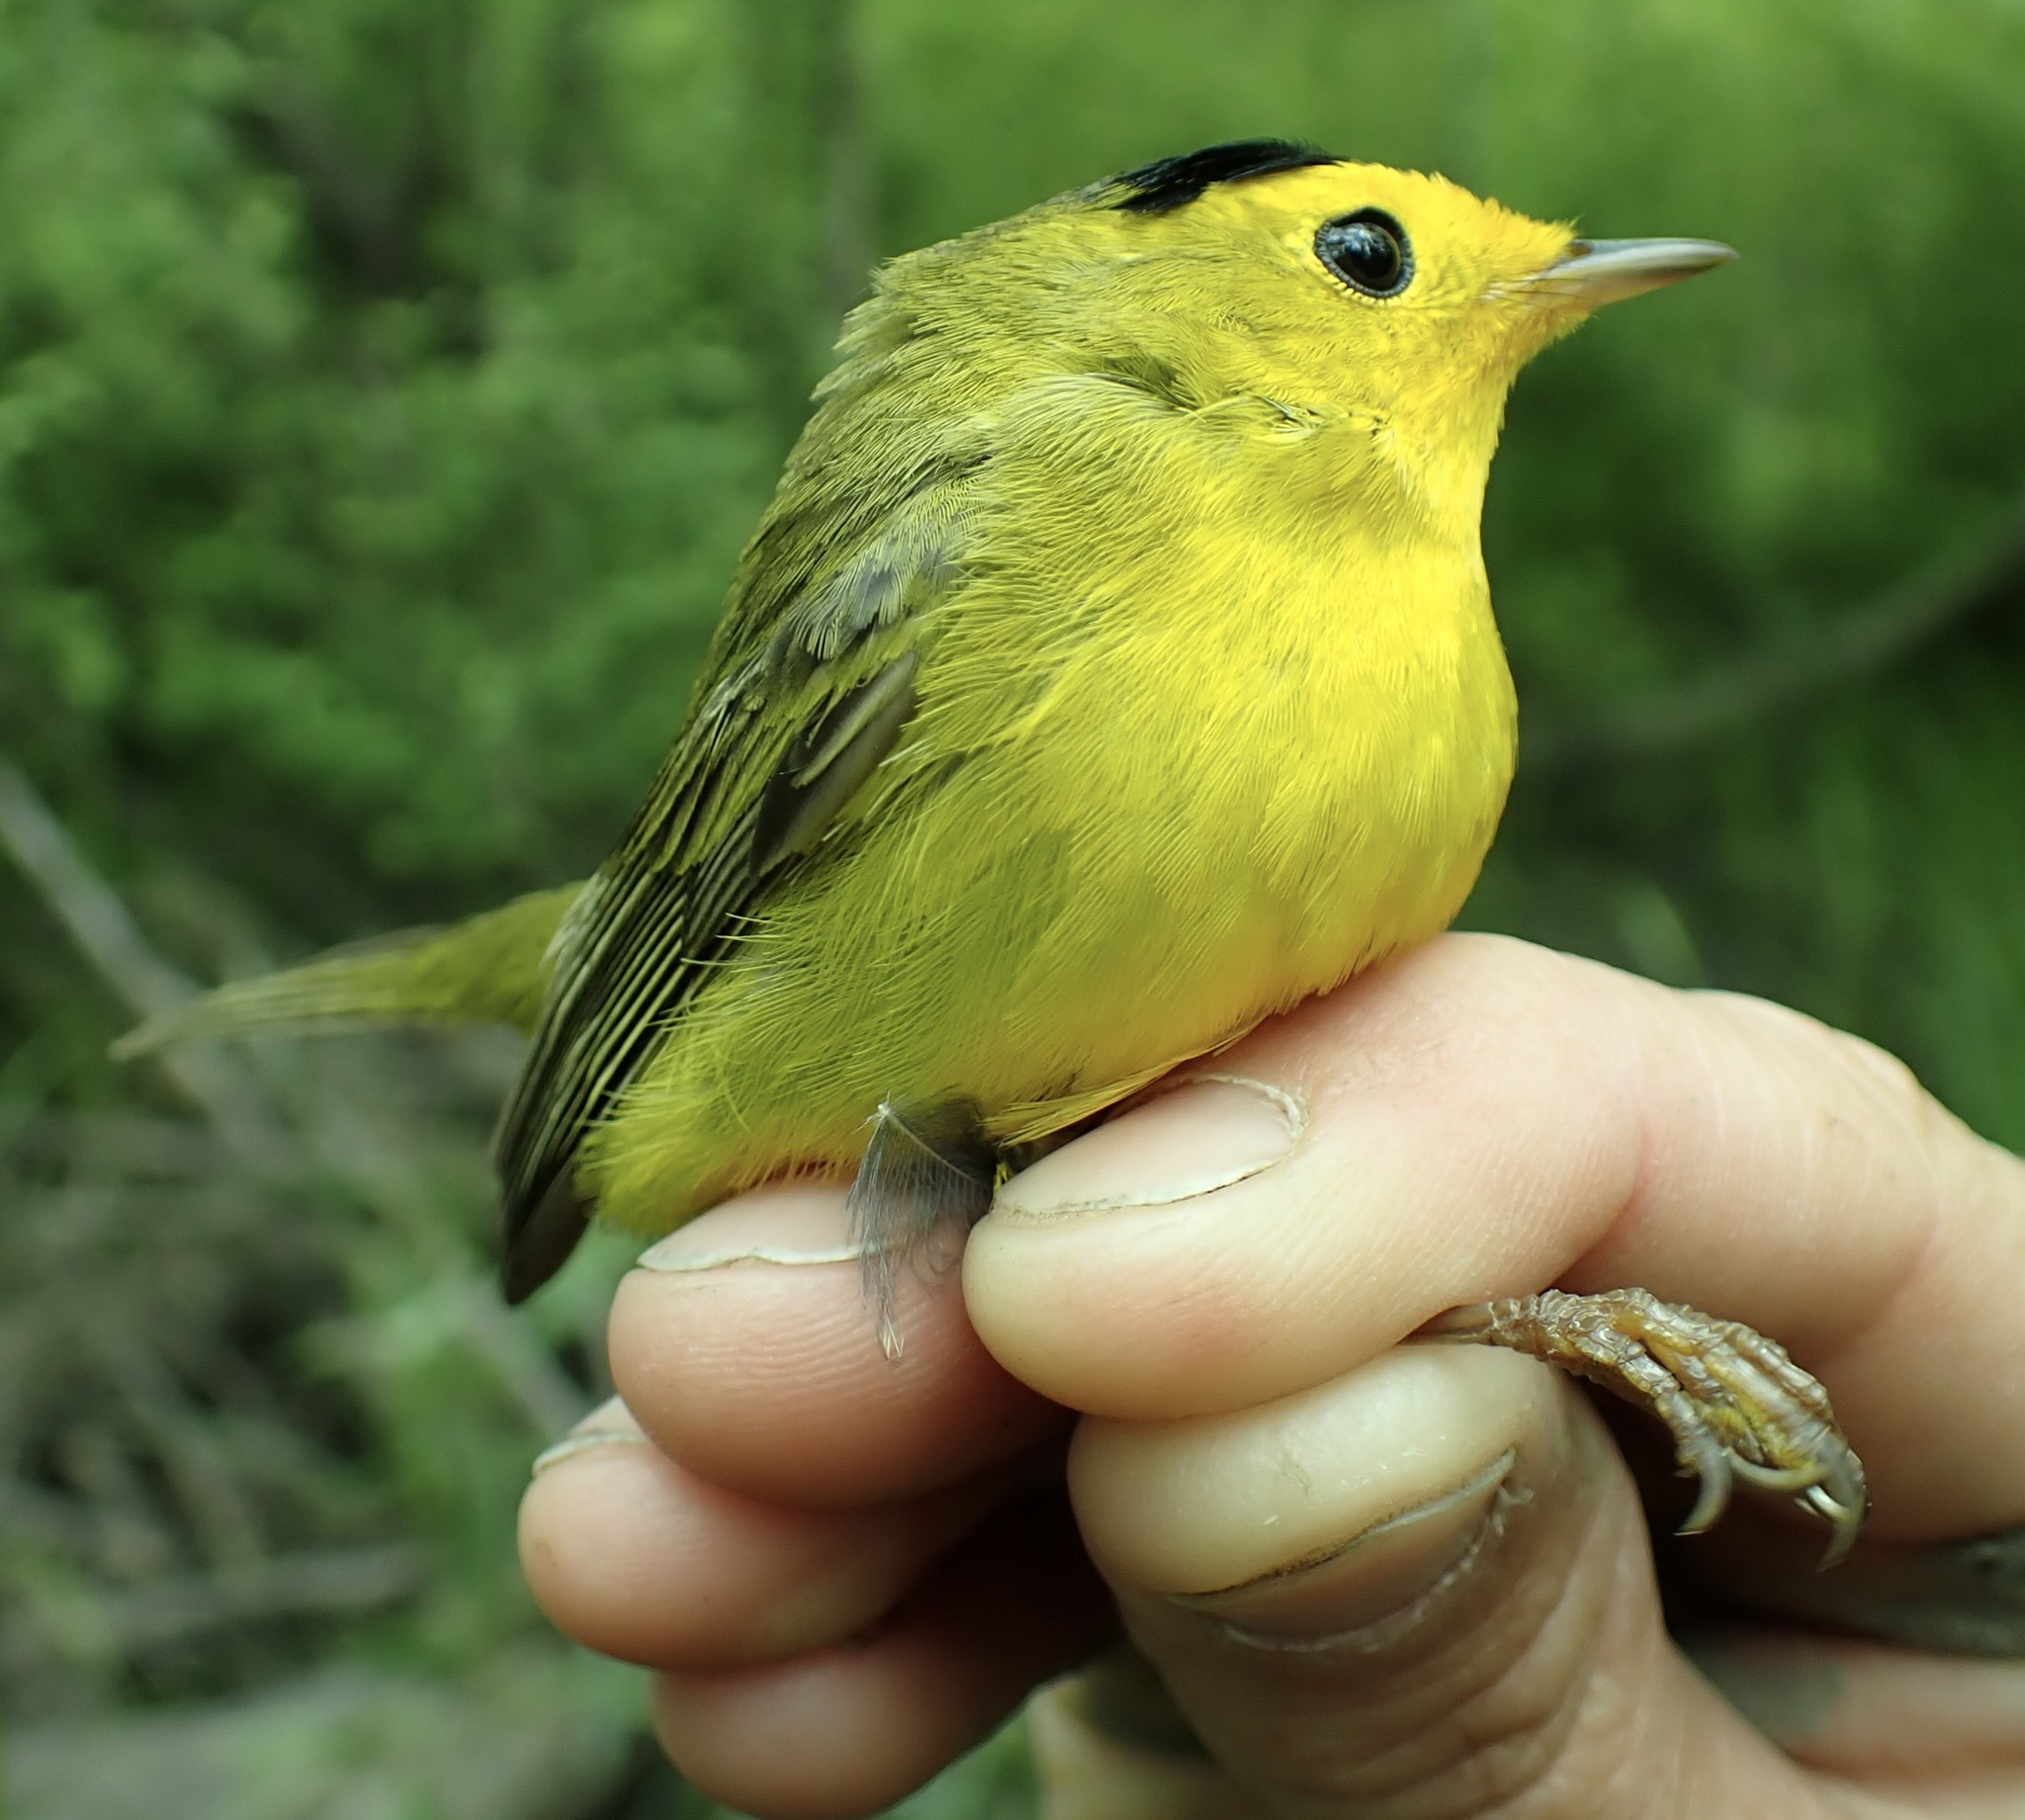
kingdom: Animalia
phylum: Chordata
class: Aves
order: Passeriformes
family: Parulidae
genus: Cardellina
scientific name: Cardellina pusilla
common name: Wilson's warbler
